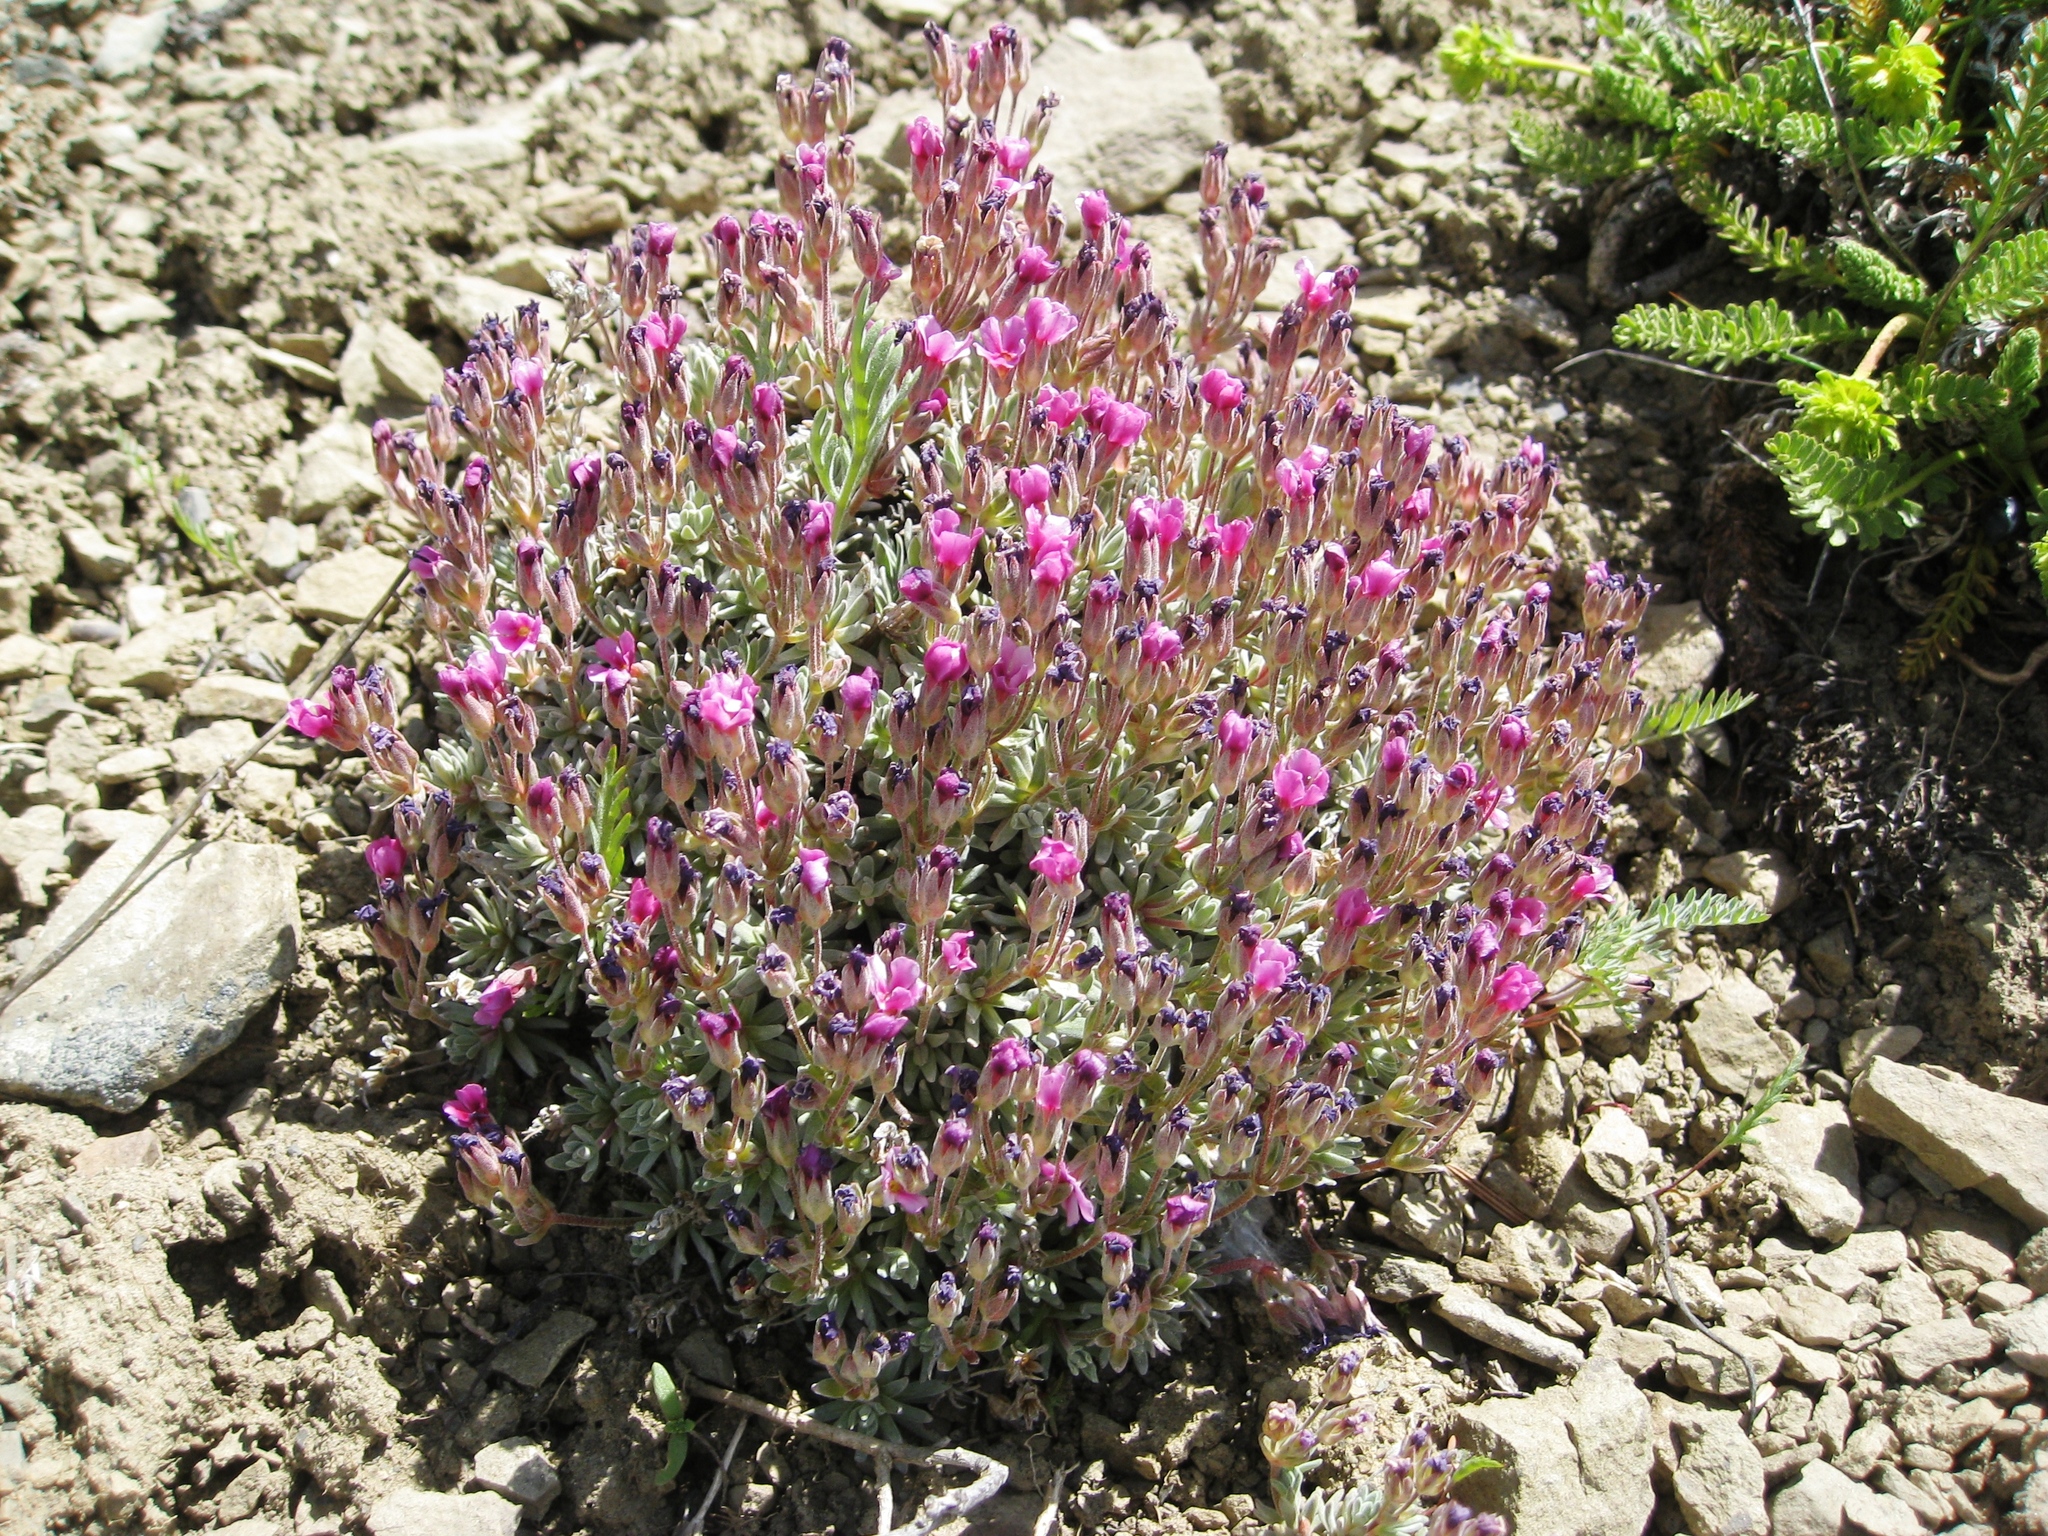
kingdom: Plantae
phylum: Tracheophyta
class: Magnoliopsida
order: Ericales
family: Primulaceae
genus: Androsace
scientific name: Androsace nivalis
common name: Snow dwarf-primrose
